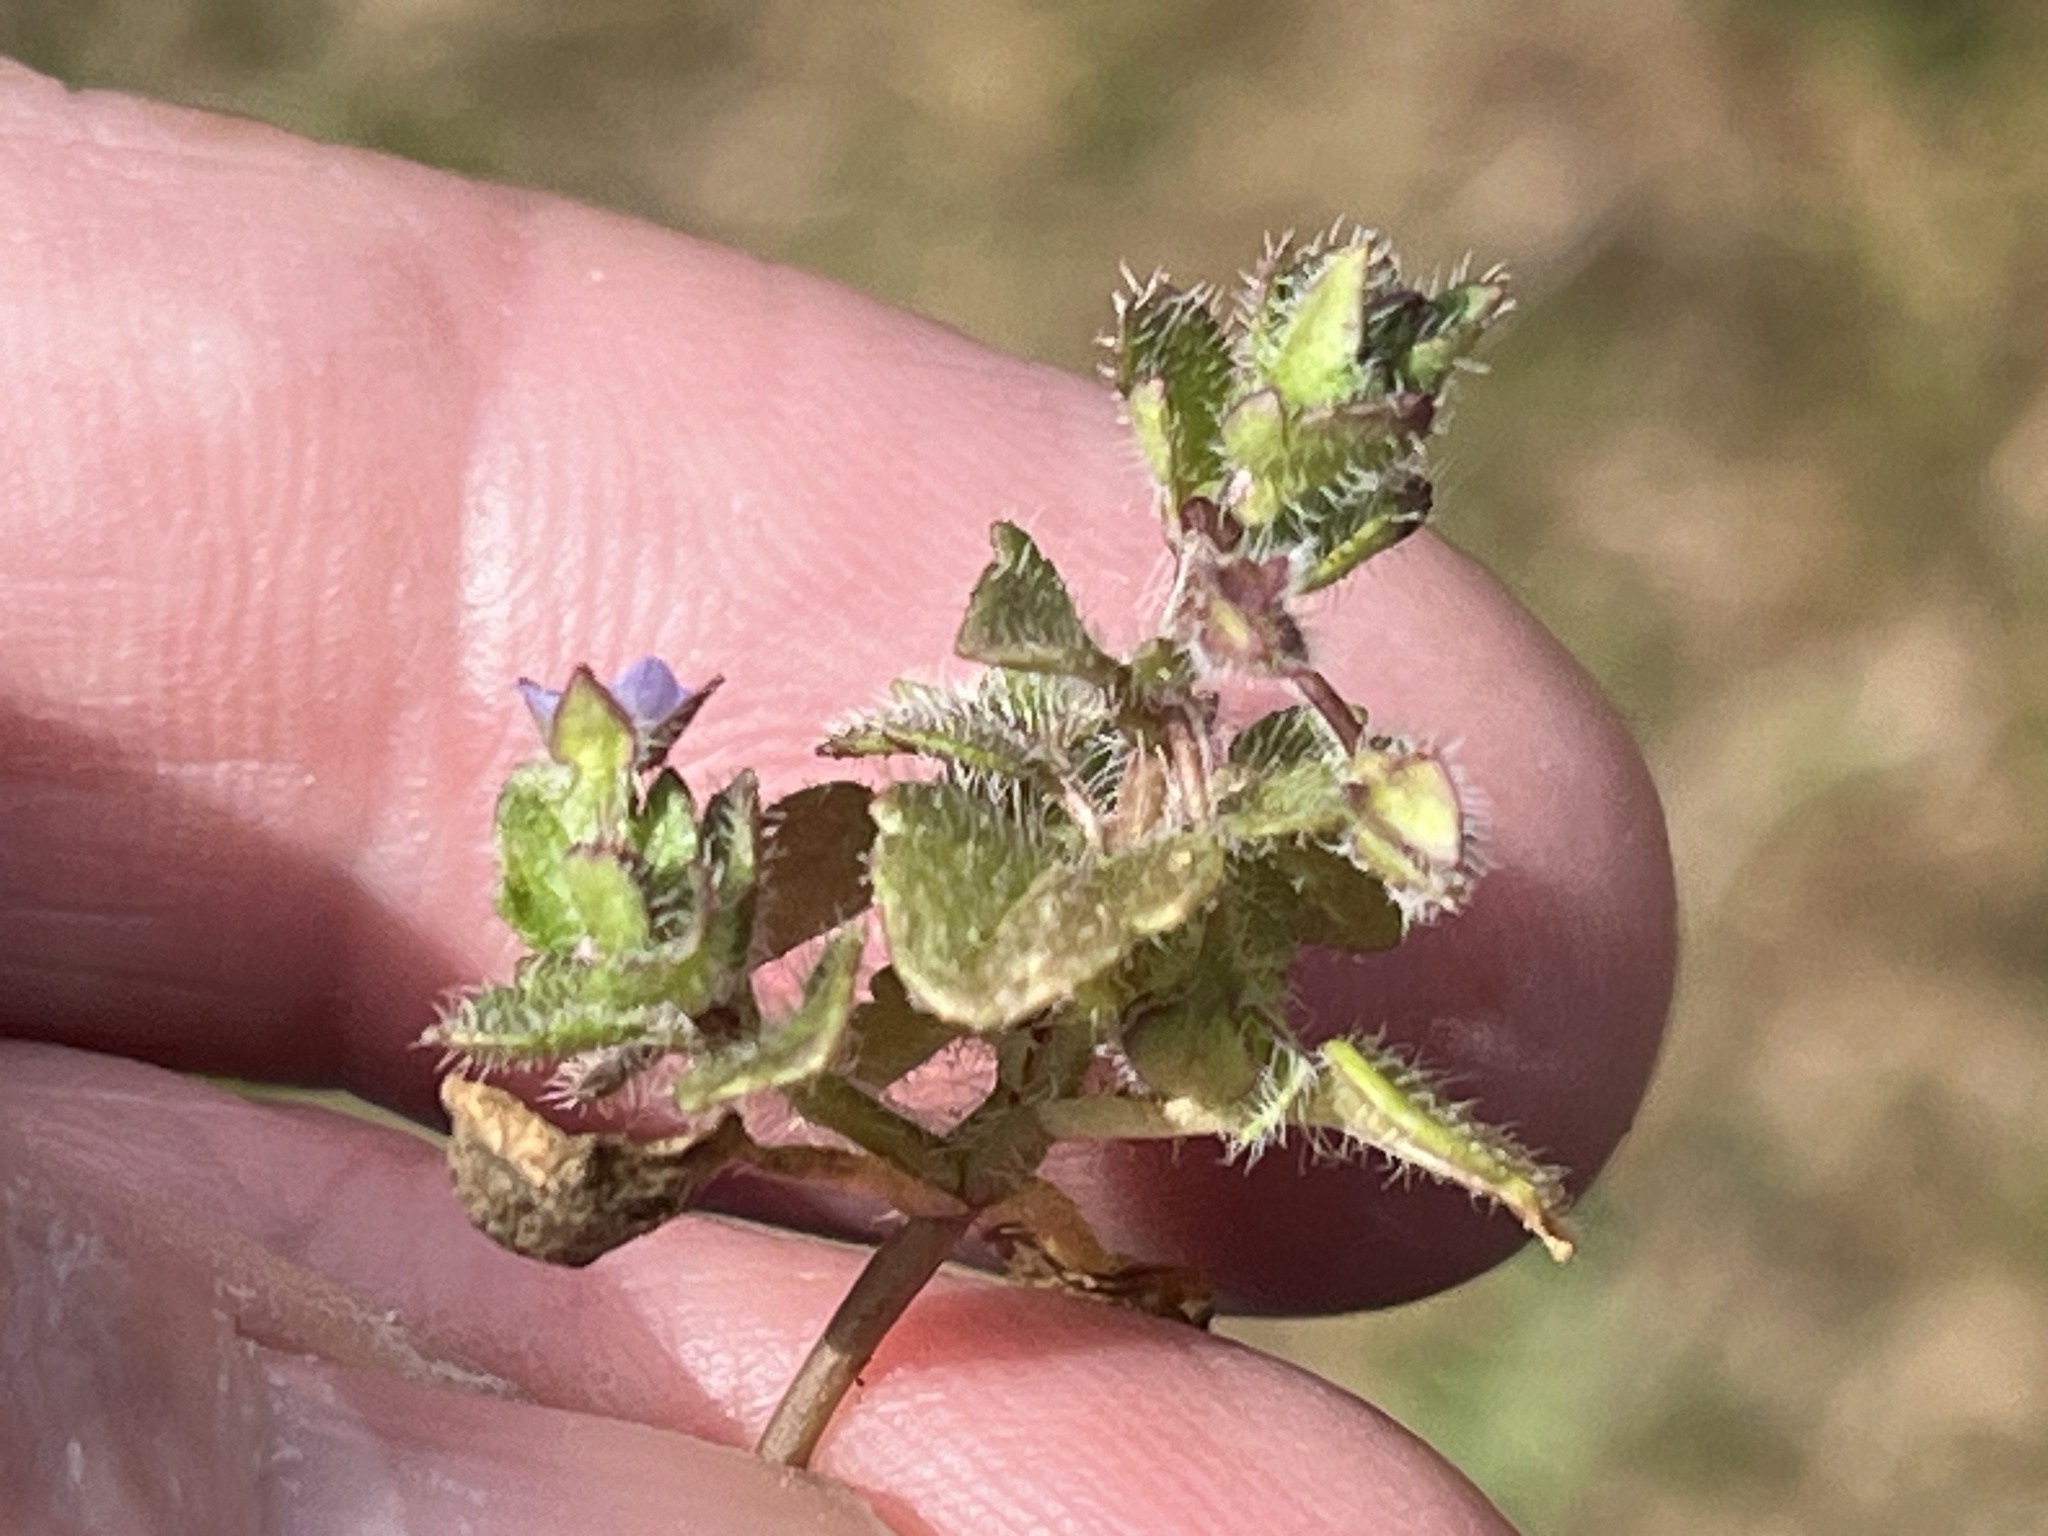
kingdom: Plantae
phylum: Tracheophyta
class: Magnoliopsida
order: Lamiales
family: Plantaginaceae
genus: Veronica
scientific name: Veronica hederifolia
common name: Ivy-leaved speedwell
